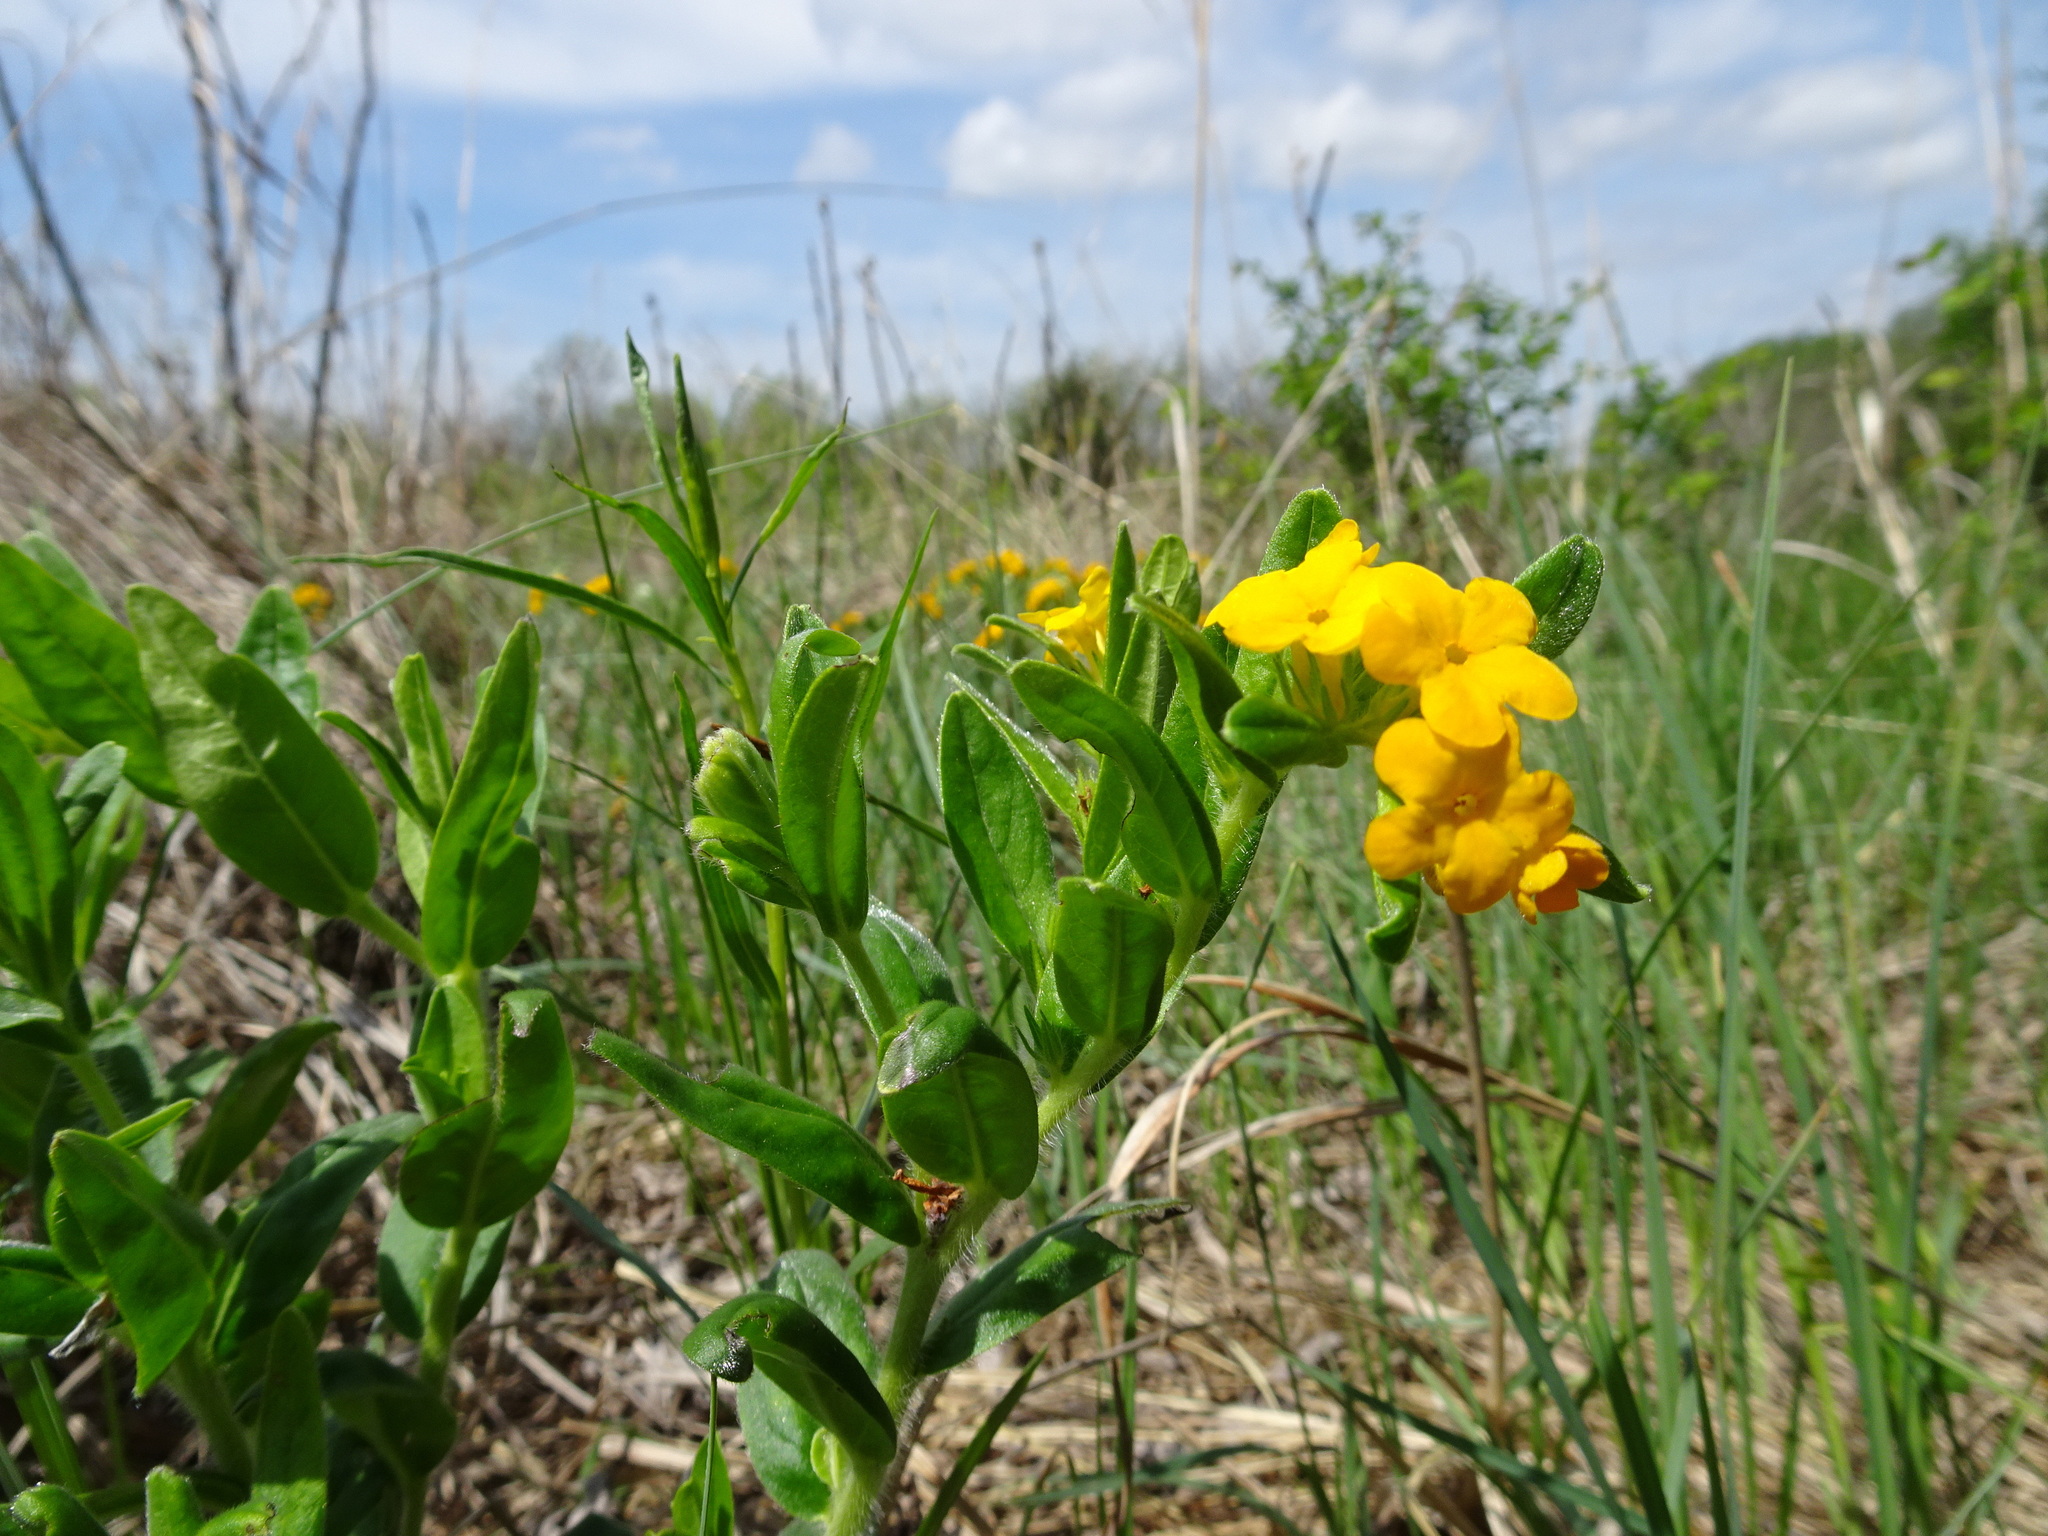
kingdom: Plantae
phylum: Tracheophyta
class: Magnoliopsida
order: Boraginales
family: Boraginaceae
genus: Lithospermum
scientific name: Lithospermum canescens
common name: Hoary puccoon
